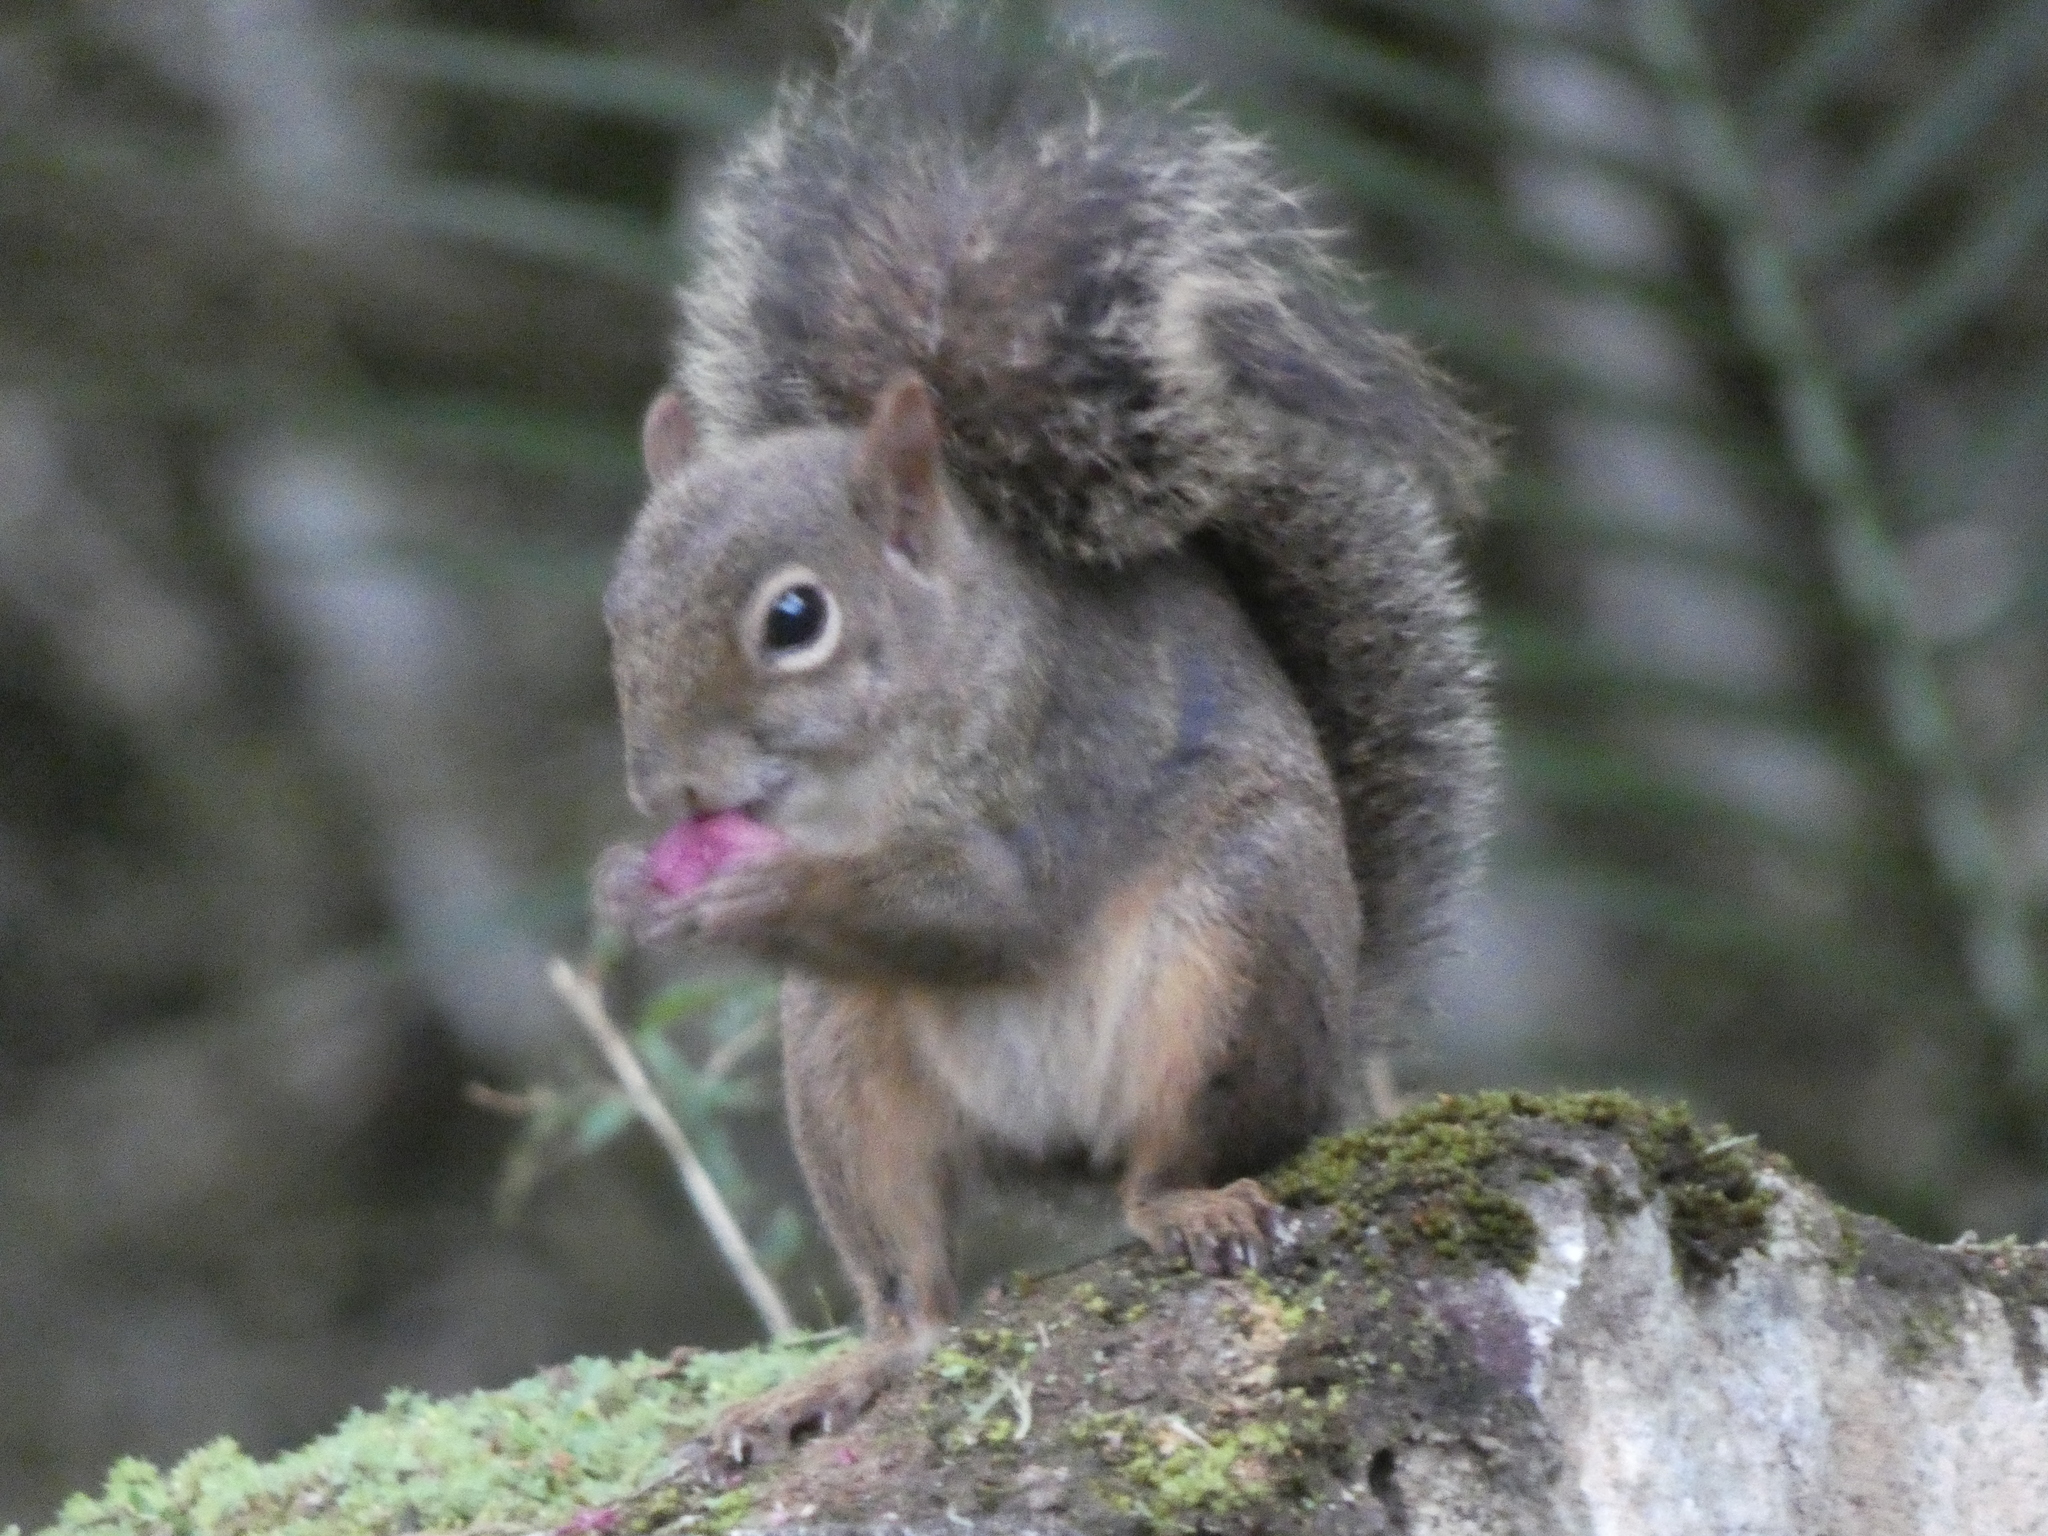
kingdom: Animalia
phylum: Chordata
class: Mammalia
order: Rodentia
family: Sciuridae
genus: Sciurus
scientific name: Sciurus aestuans
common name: Guianan squirrel
